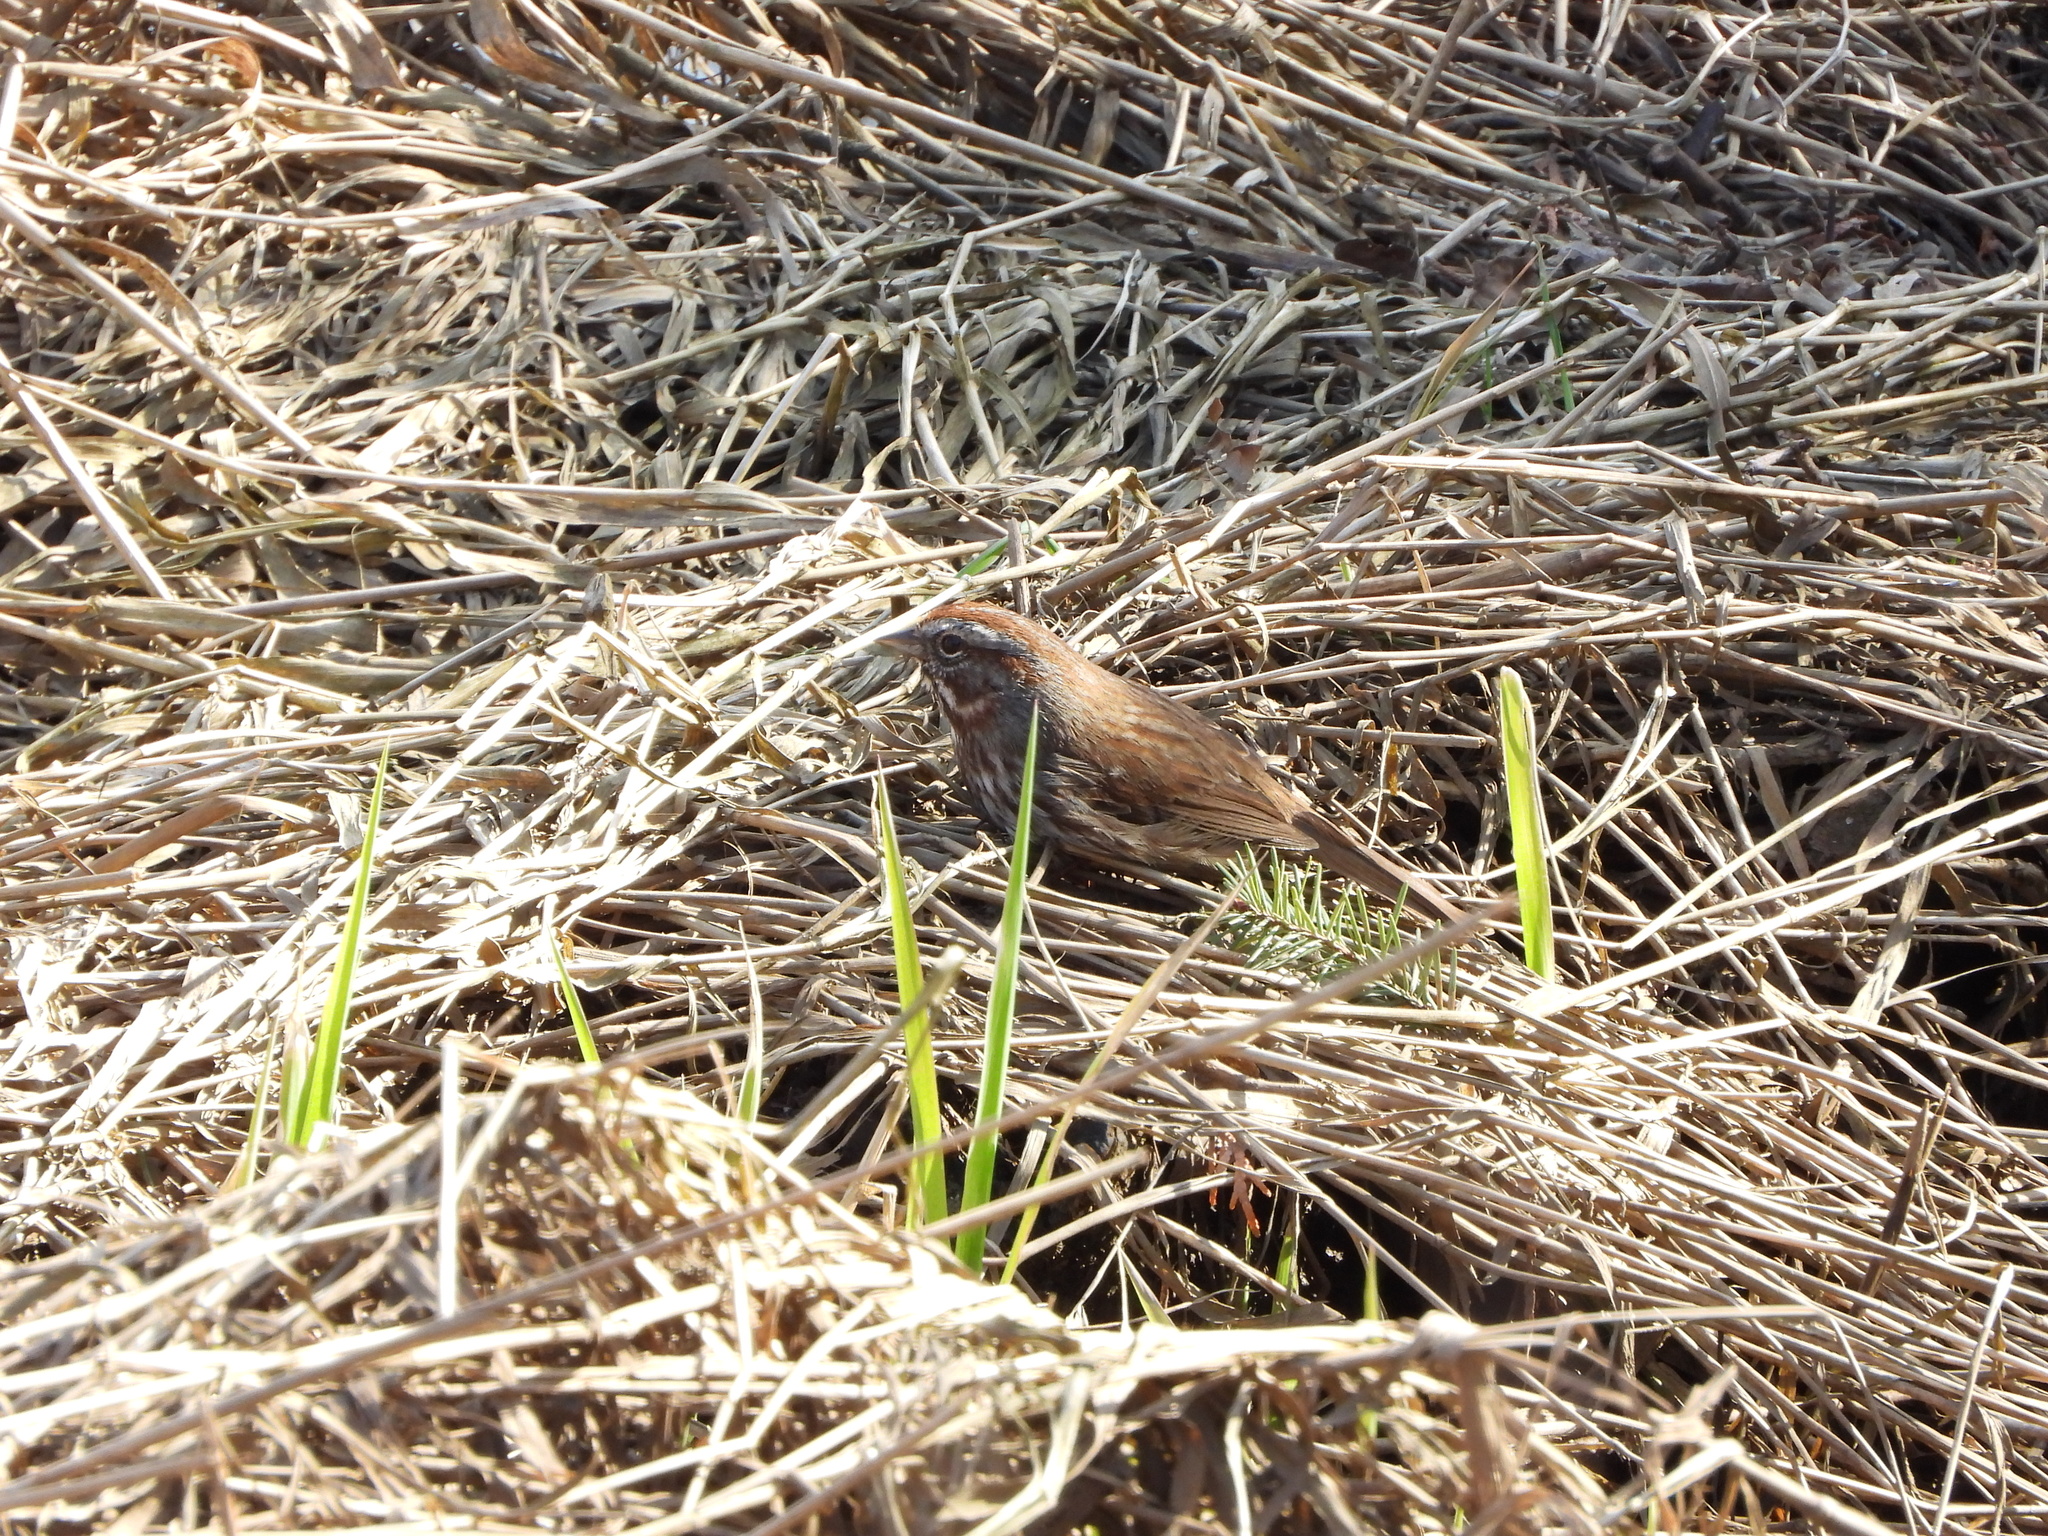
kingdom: Animalia
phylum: Chordata
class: Aves
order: Passeriformes
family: Passerellidae
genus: Melospiza
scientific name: Melospiza melodia
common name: Song sparrow
